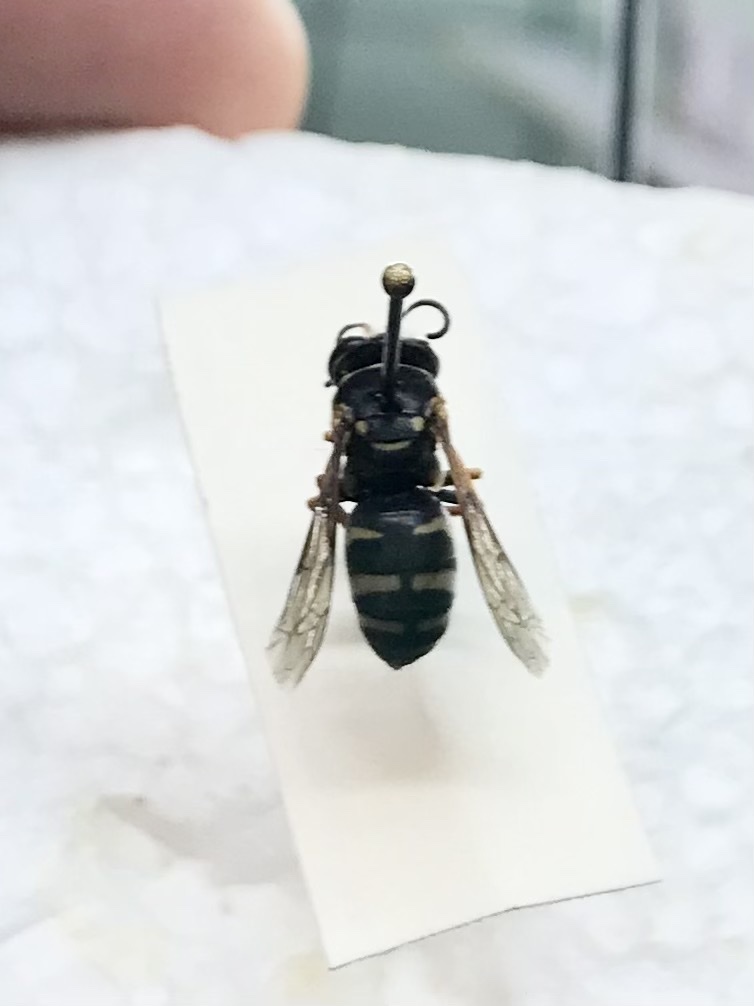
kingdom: Animalia
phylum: Arthropoda
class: Insecta
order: Hymenoptera
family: Crabronidae
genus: Bicyrtes
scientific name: Bicyrtes ventralis
